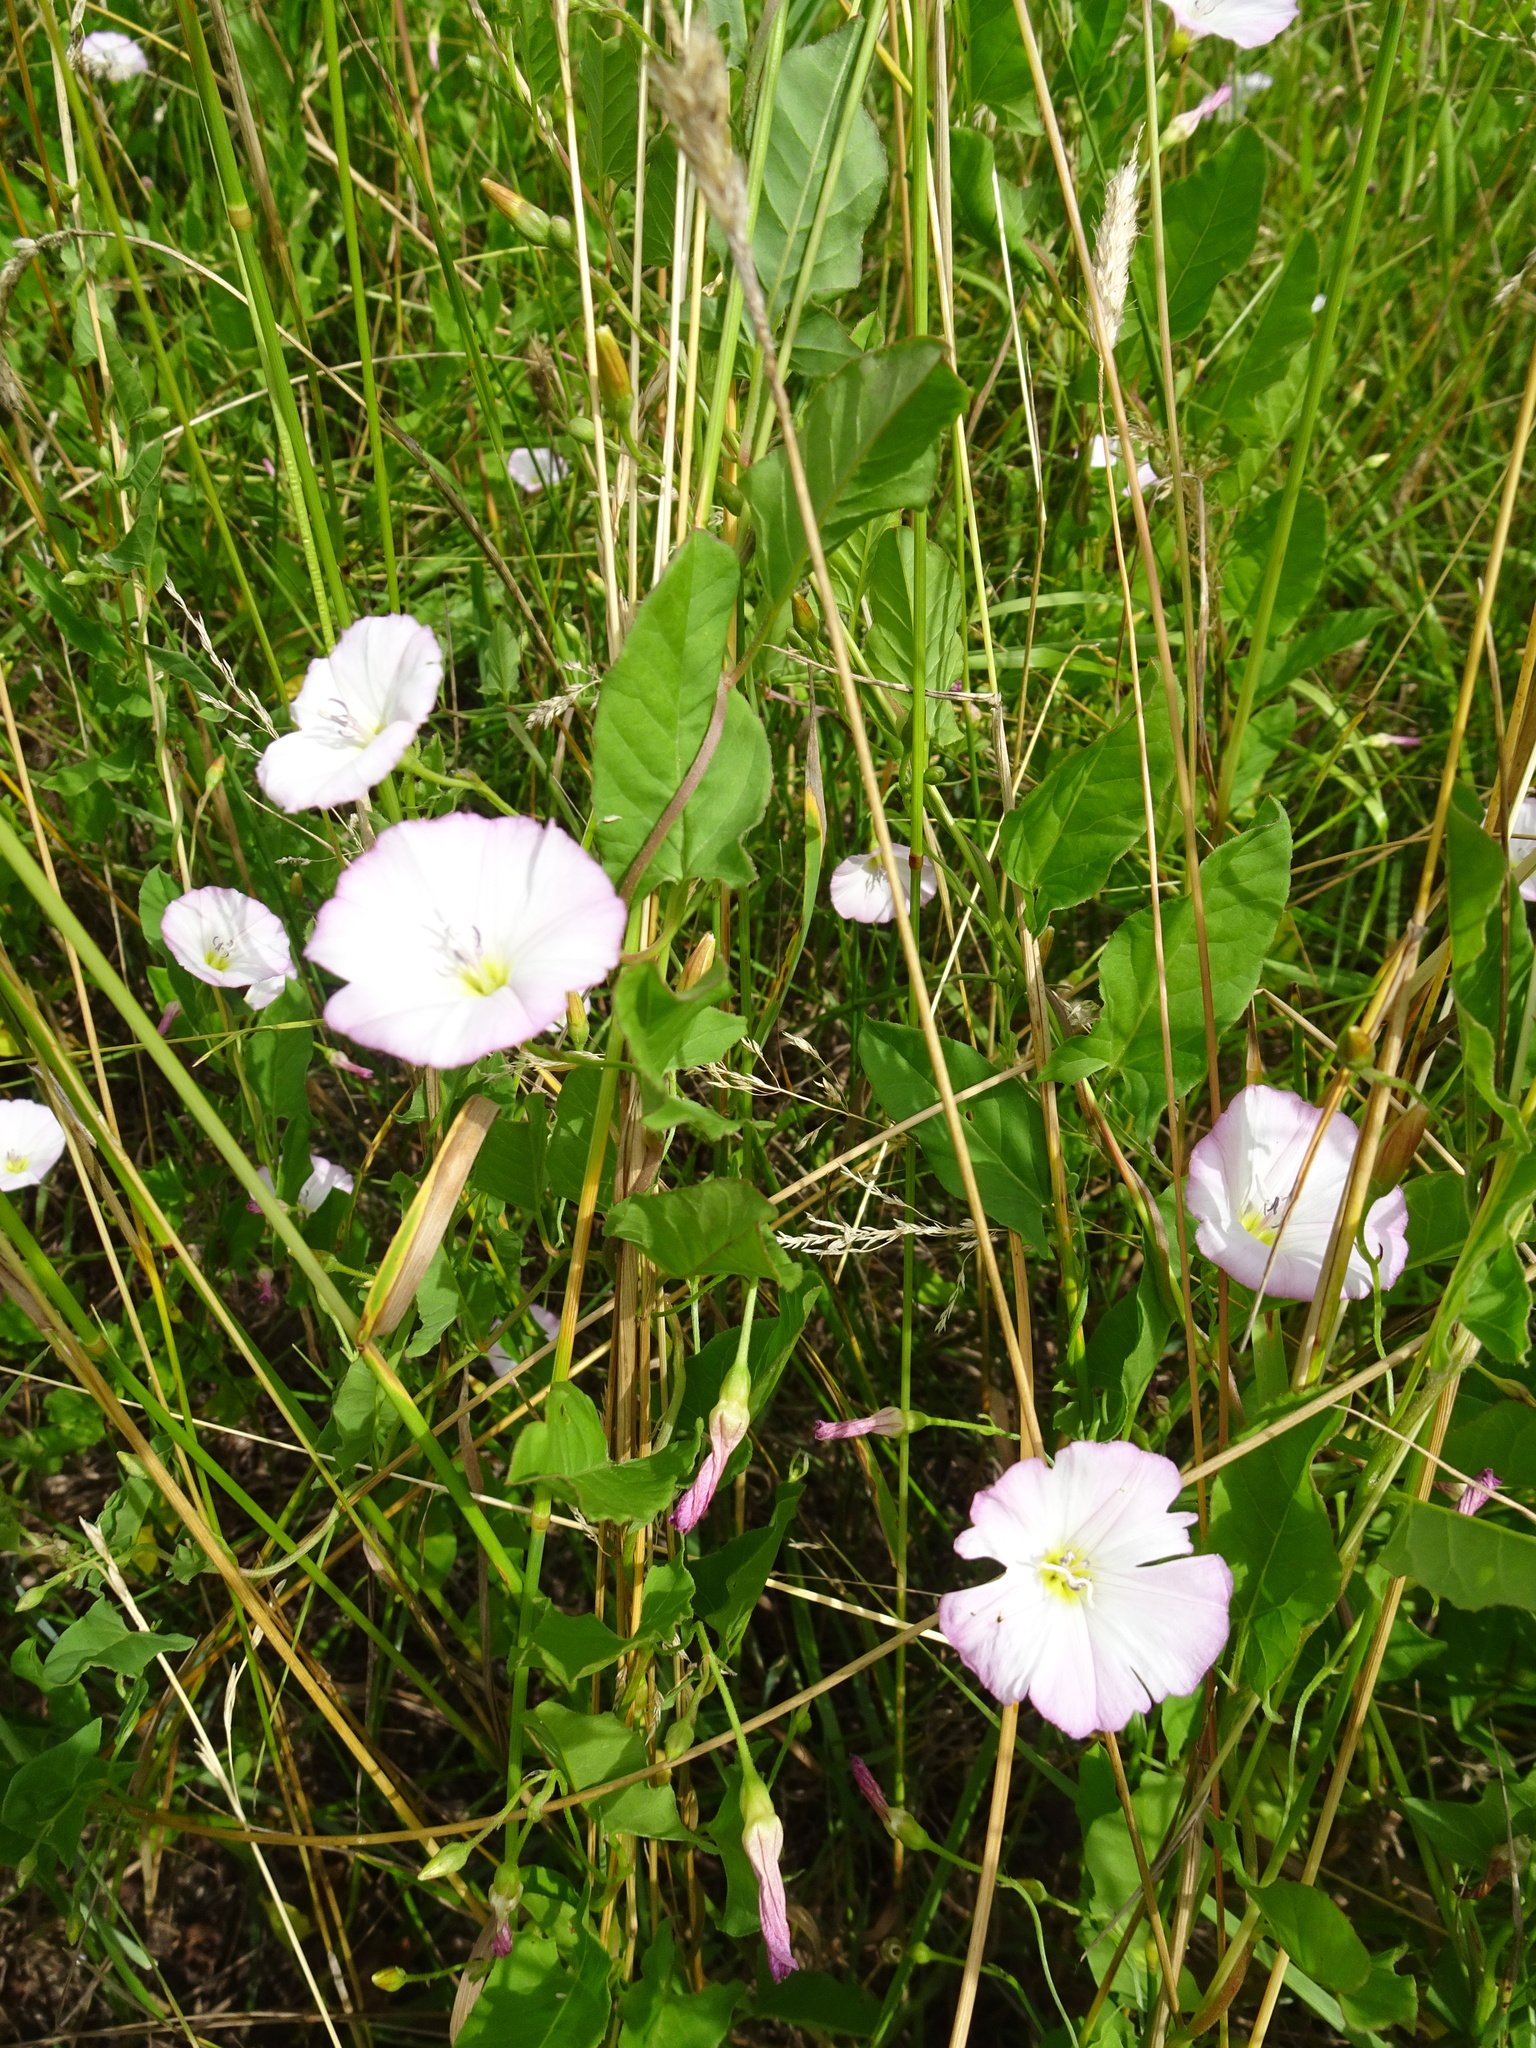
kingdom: Plantae
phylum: Tracheophyta
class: Magnoliopsida
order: Solanales
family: Convolvulaceae
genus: Convolvulus
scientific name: Convolvulus arvensis
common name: Field bindweed
